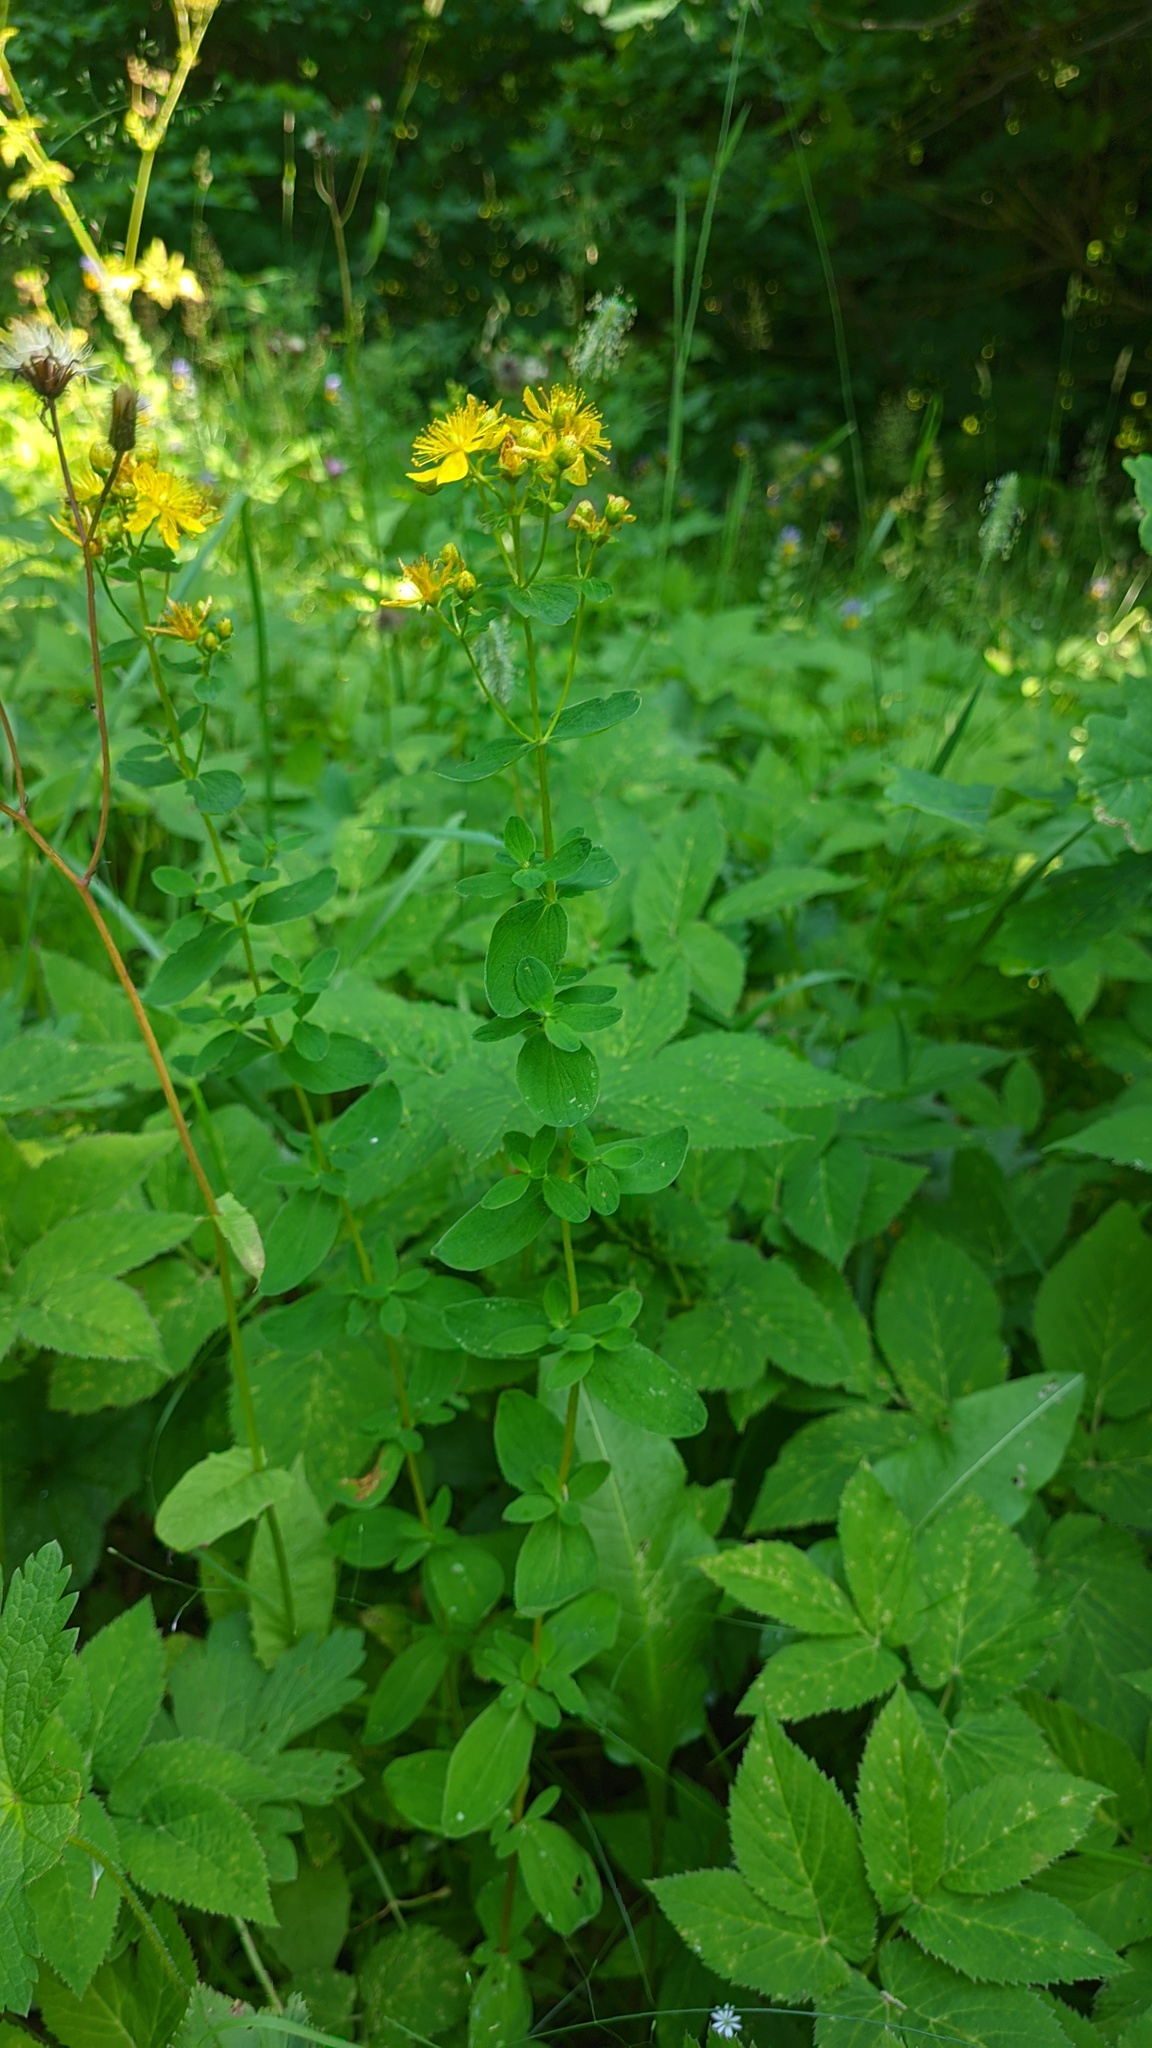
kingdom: Plantae
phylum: Tracheophyta
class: Magnoliopsida
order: Malpighiales
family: Hypericaceae
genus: Hypericum
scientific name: Hypericum maculatum
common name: Imperforate st. john's-wort
